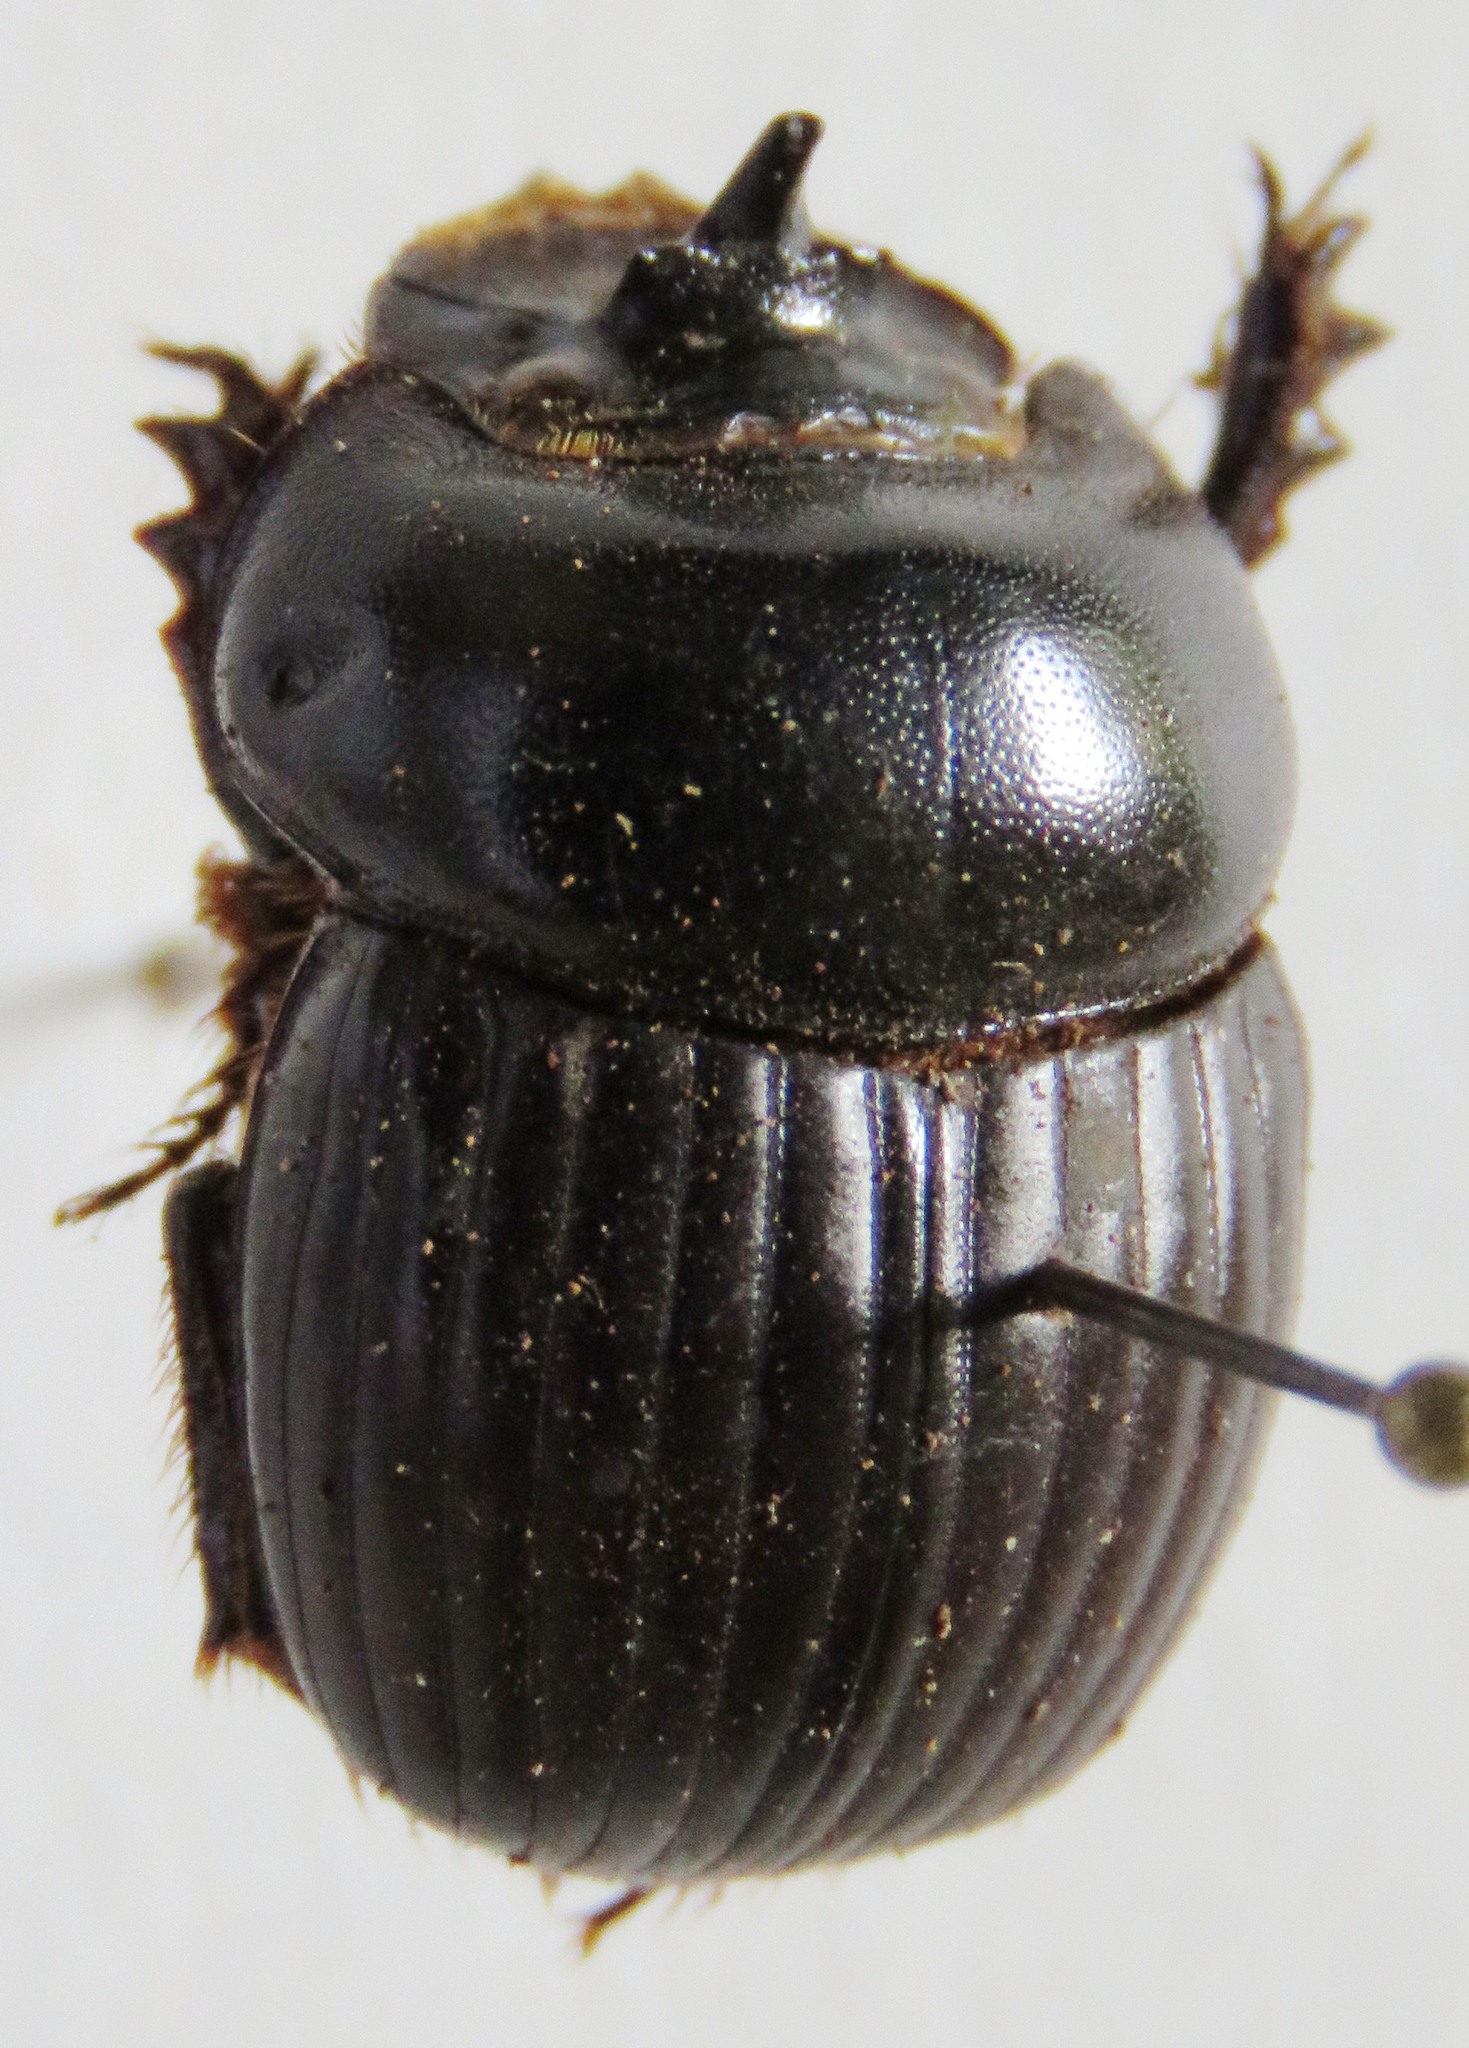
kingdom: Animalia
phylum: Arthropoda
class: Insecta
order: Coleoptera
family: Scarabaeidae
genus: Dichotomius
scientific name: Dichotomius centralis
